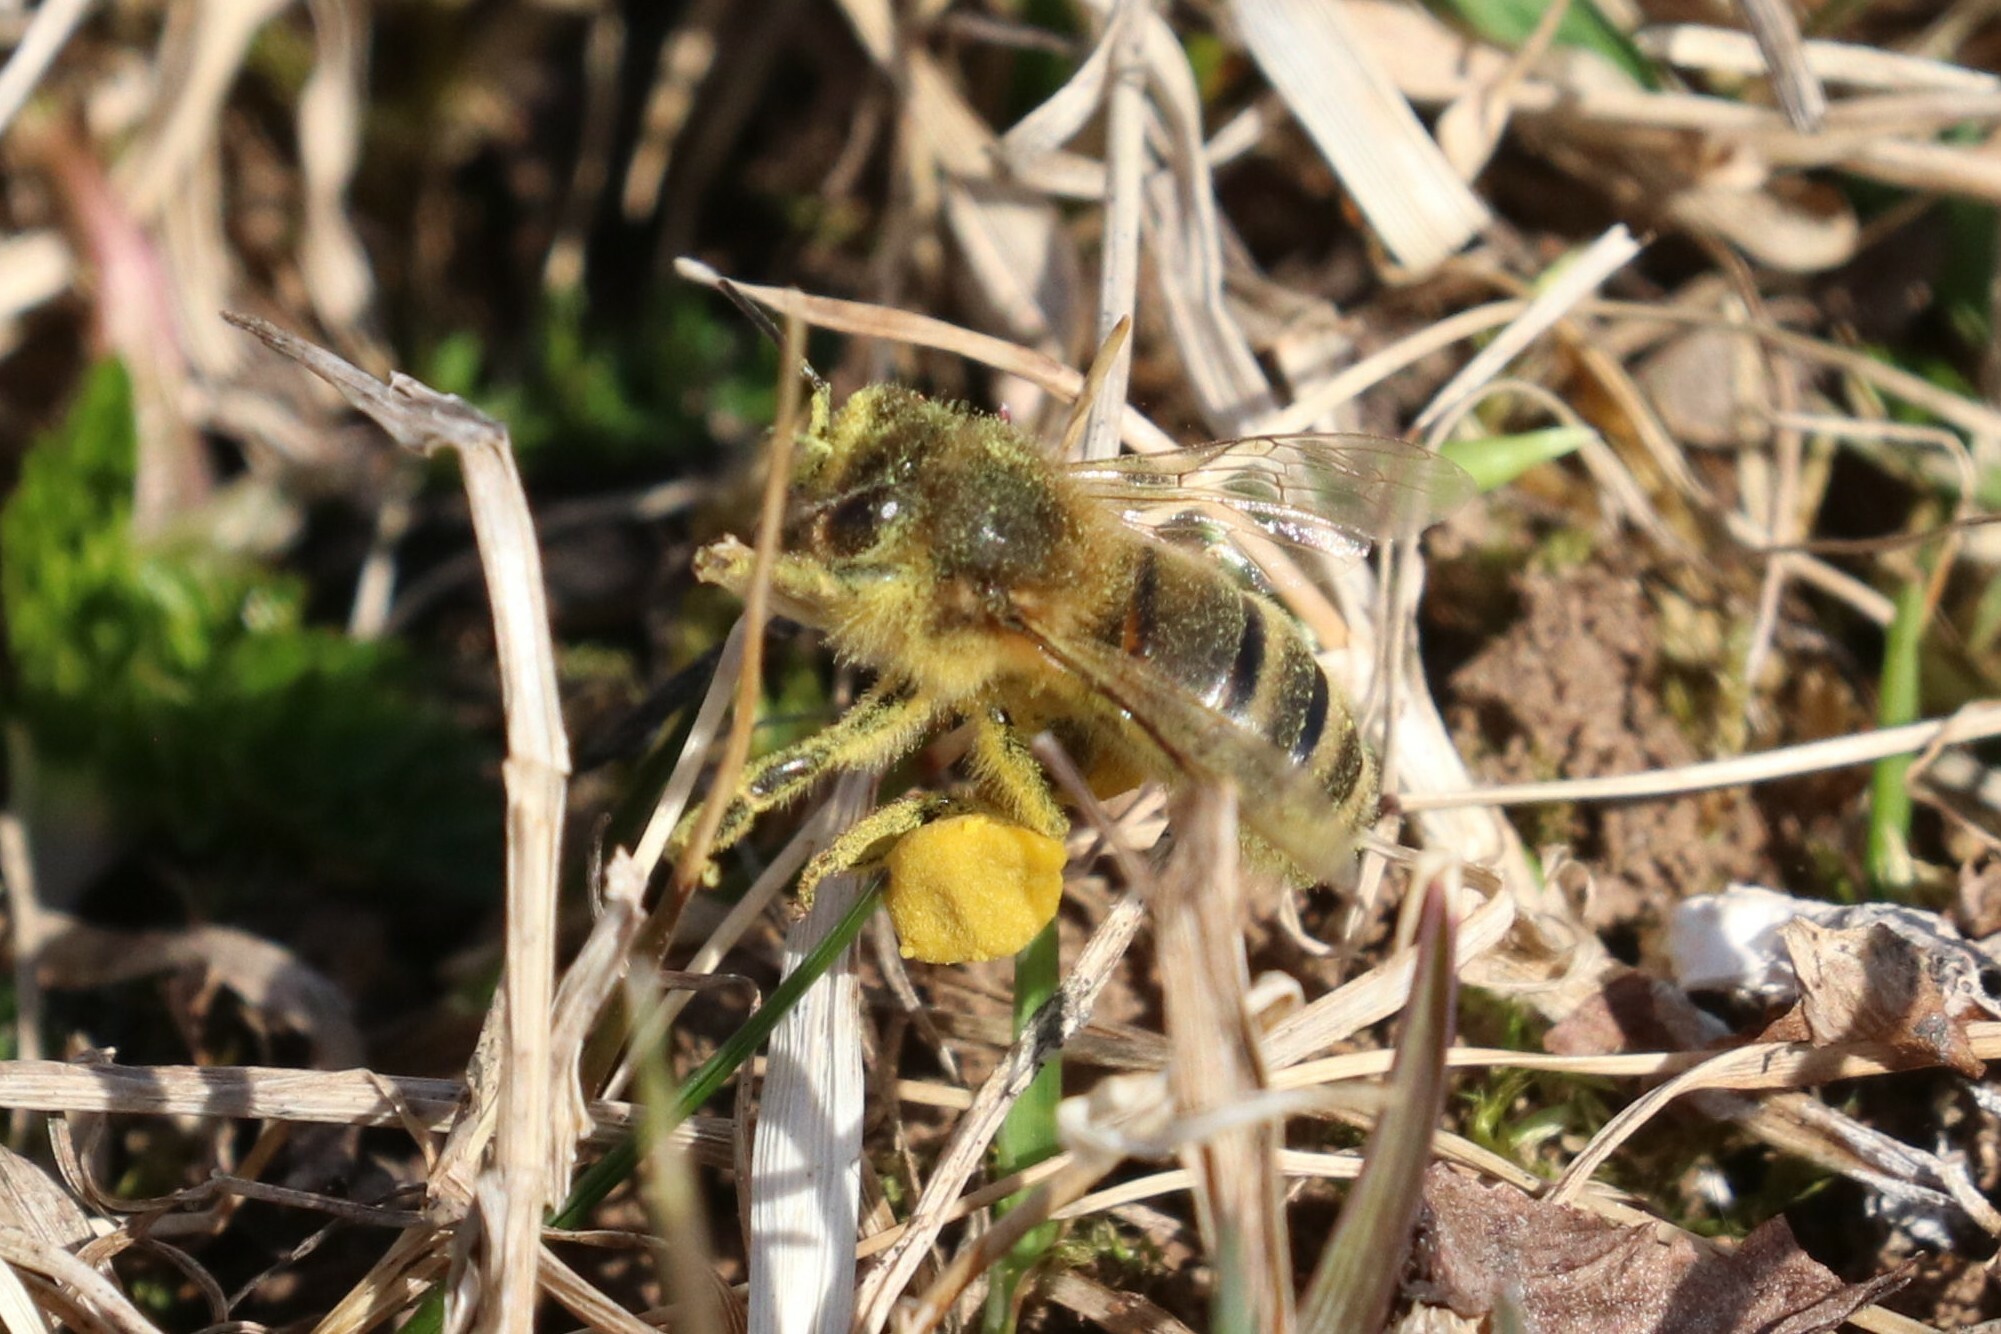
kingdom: Animalia
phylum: Arthropoda
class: Insecta
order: Hymenoptera
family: Apidae
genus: Apis
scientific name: Apis mellifera
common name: Honey bee
